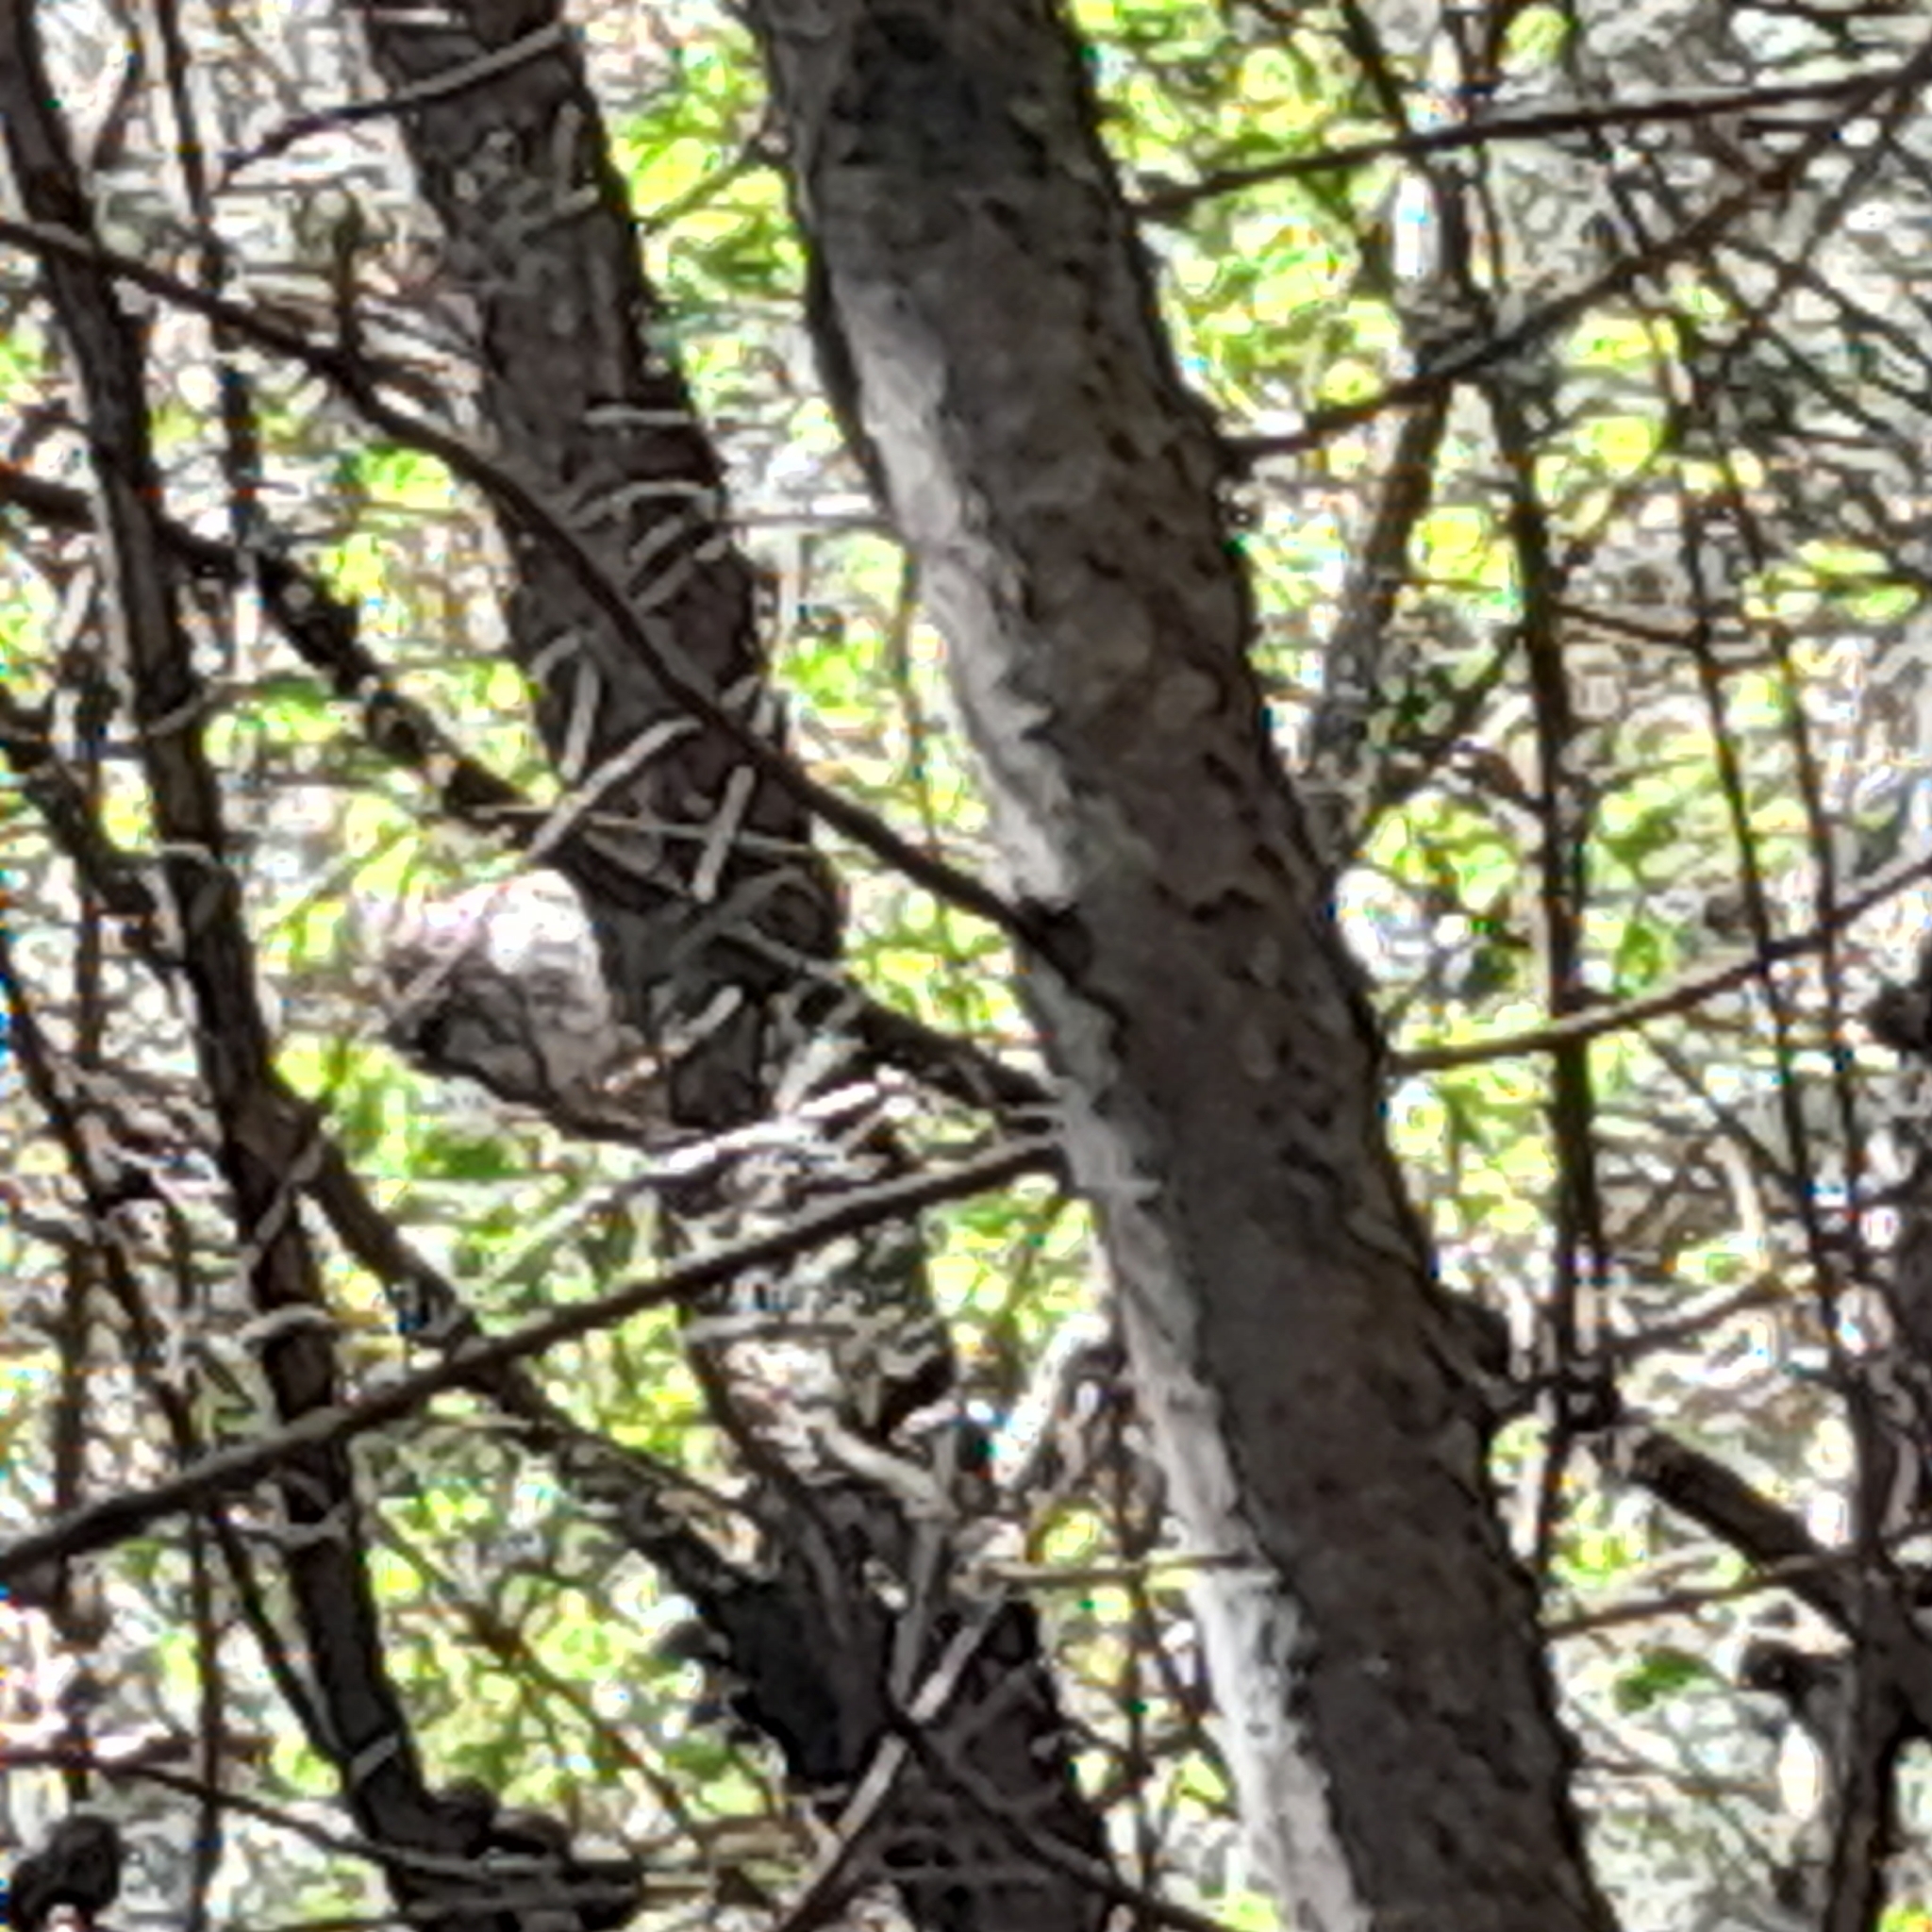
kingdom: Animalia
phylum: Chordata
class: Aves
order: Strigiformes
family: Strigidae
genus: Athene
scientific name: Athene noctua
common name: Little owl
